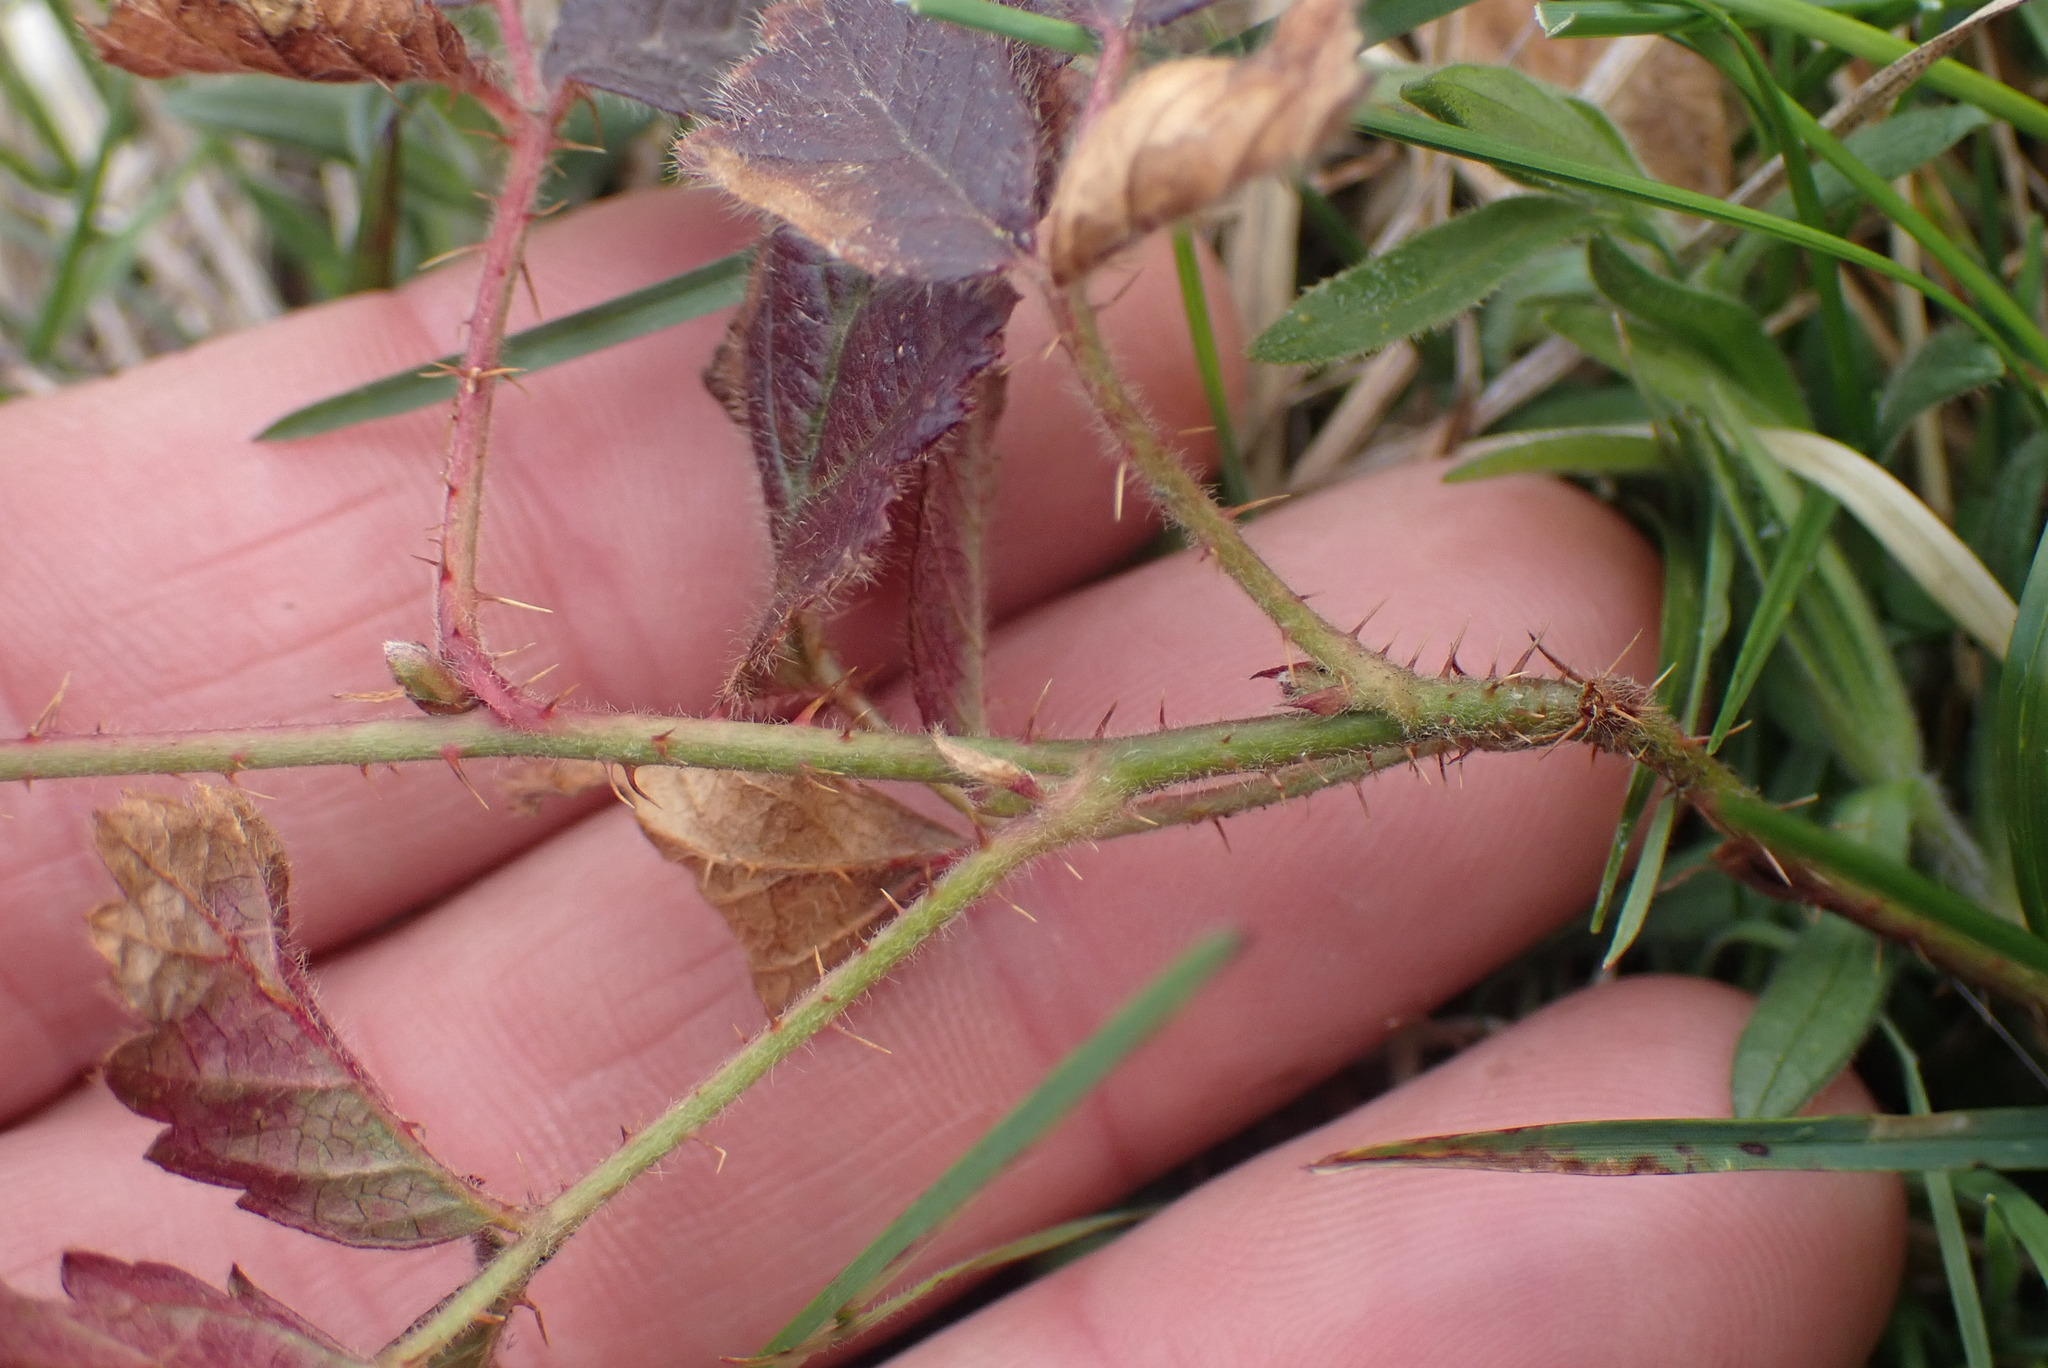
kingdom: Plantae
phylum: Tracheophyta
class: Magnoliopsida
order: Rosales
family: Rosaceae
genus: Rubus
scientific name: Rubus ursinus
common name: Pacific blackberry
